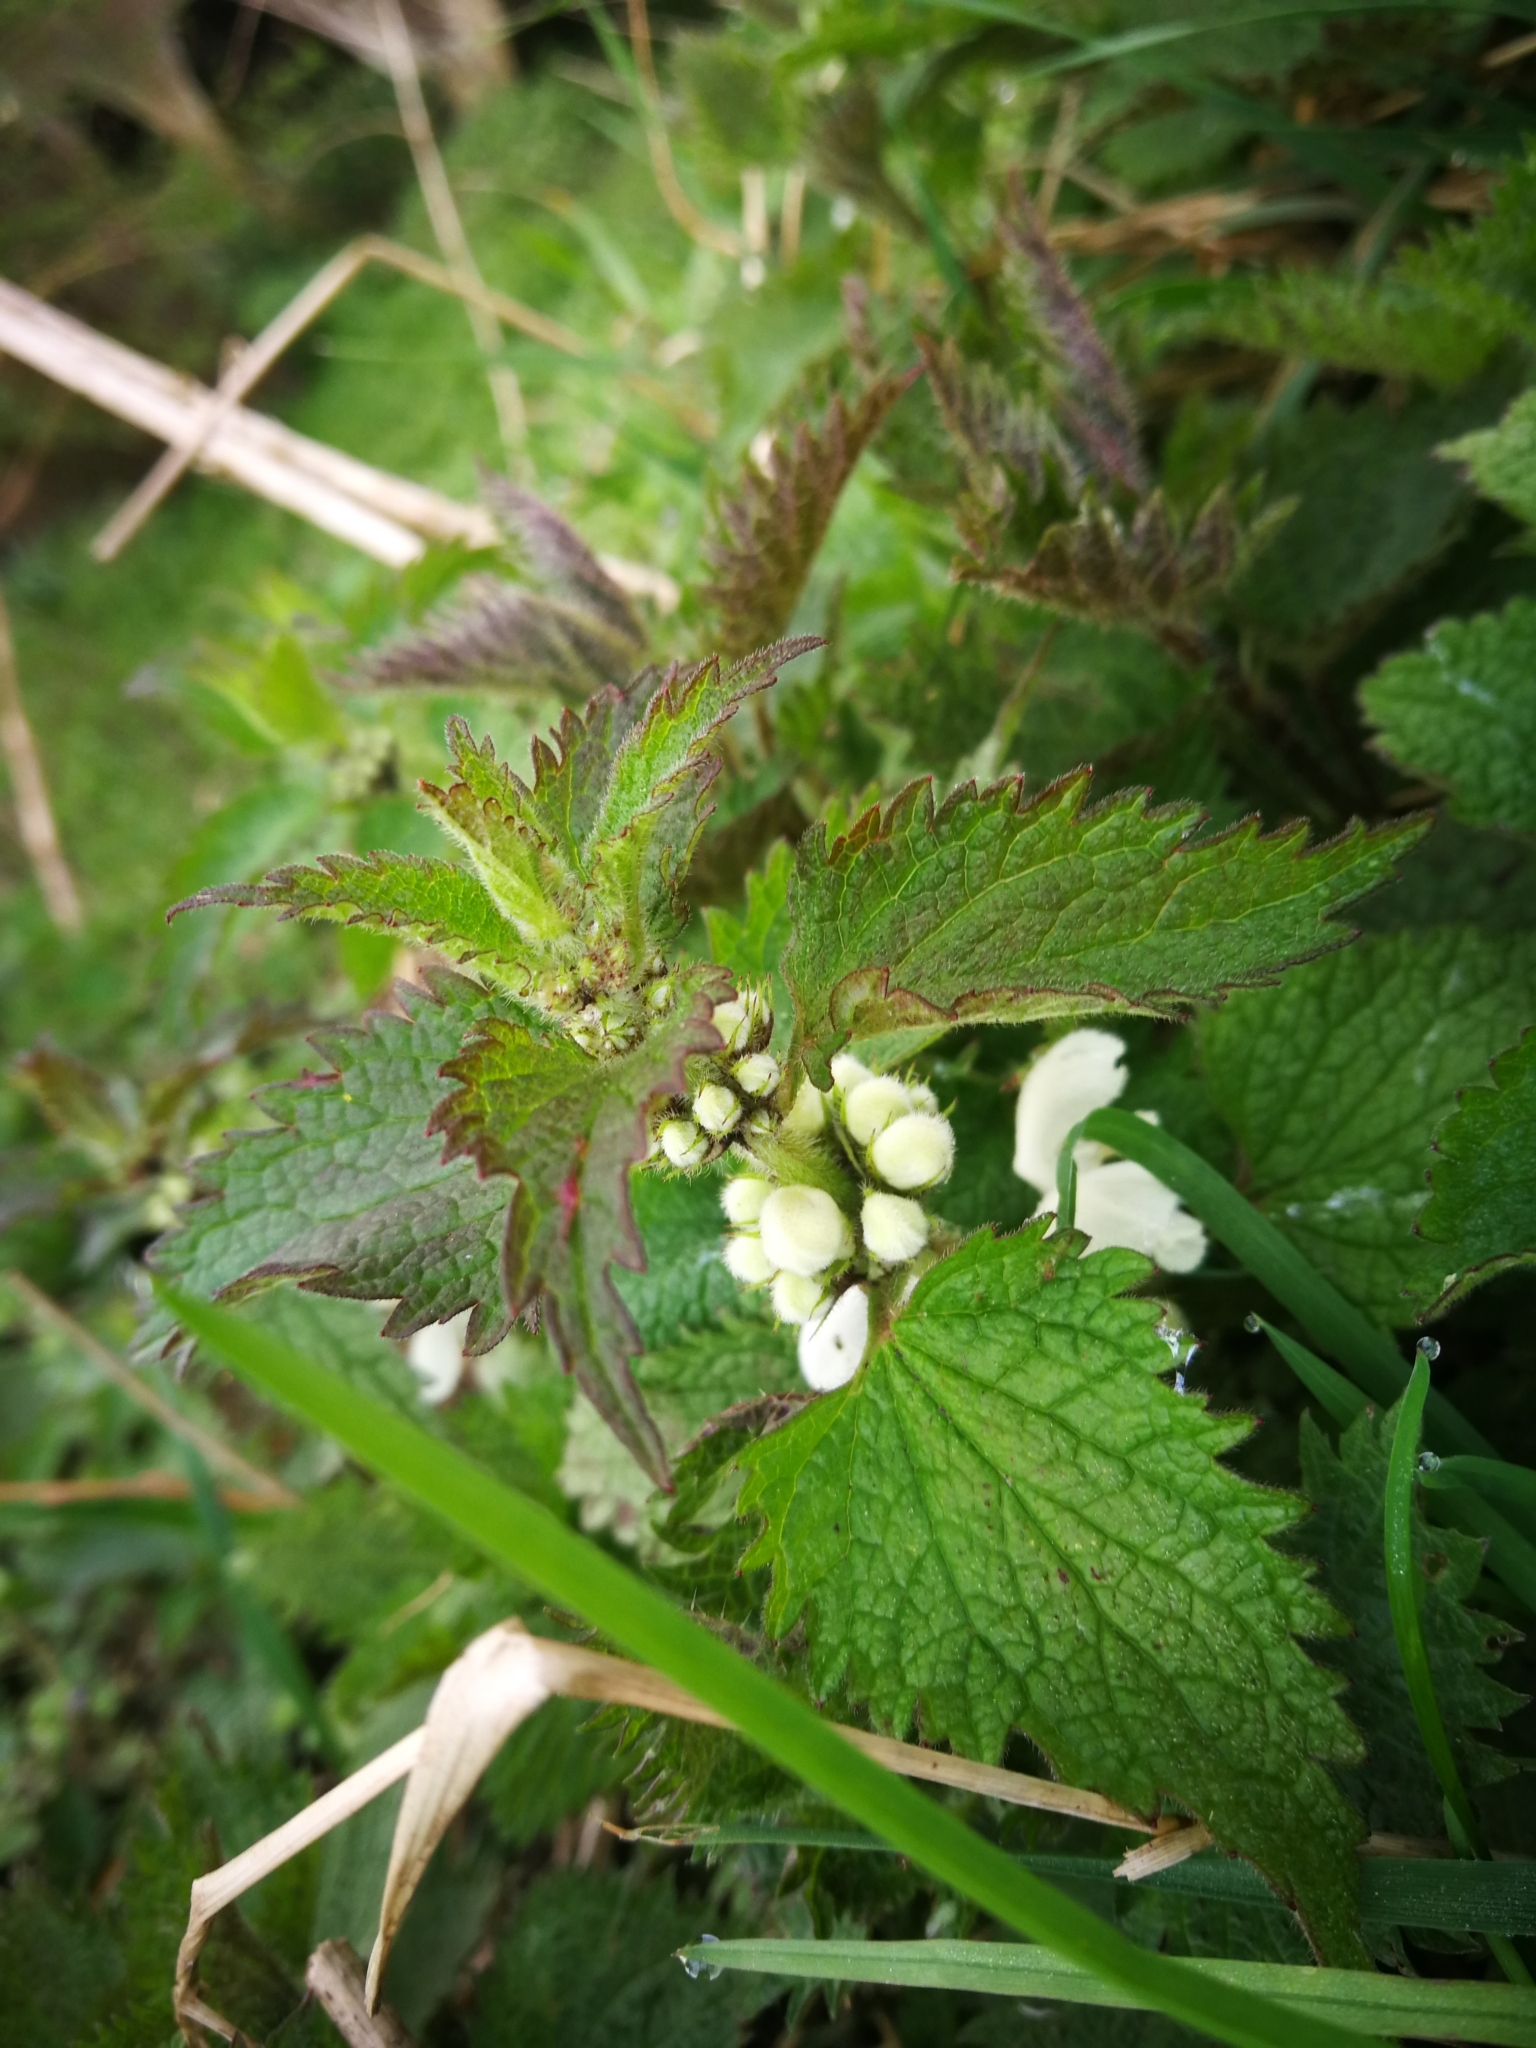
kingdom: Plantae
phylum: Tracheophyta
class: Magnoliopsida
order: Lamiales
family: Lamiaceae
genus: Lamium
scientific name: Lamium album
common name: White dead-nettle
